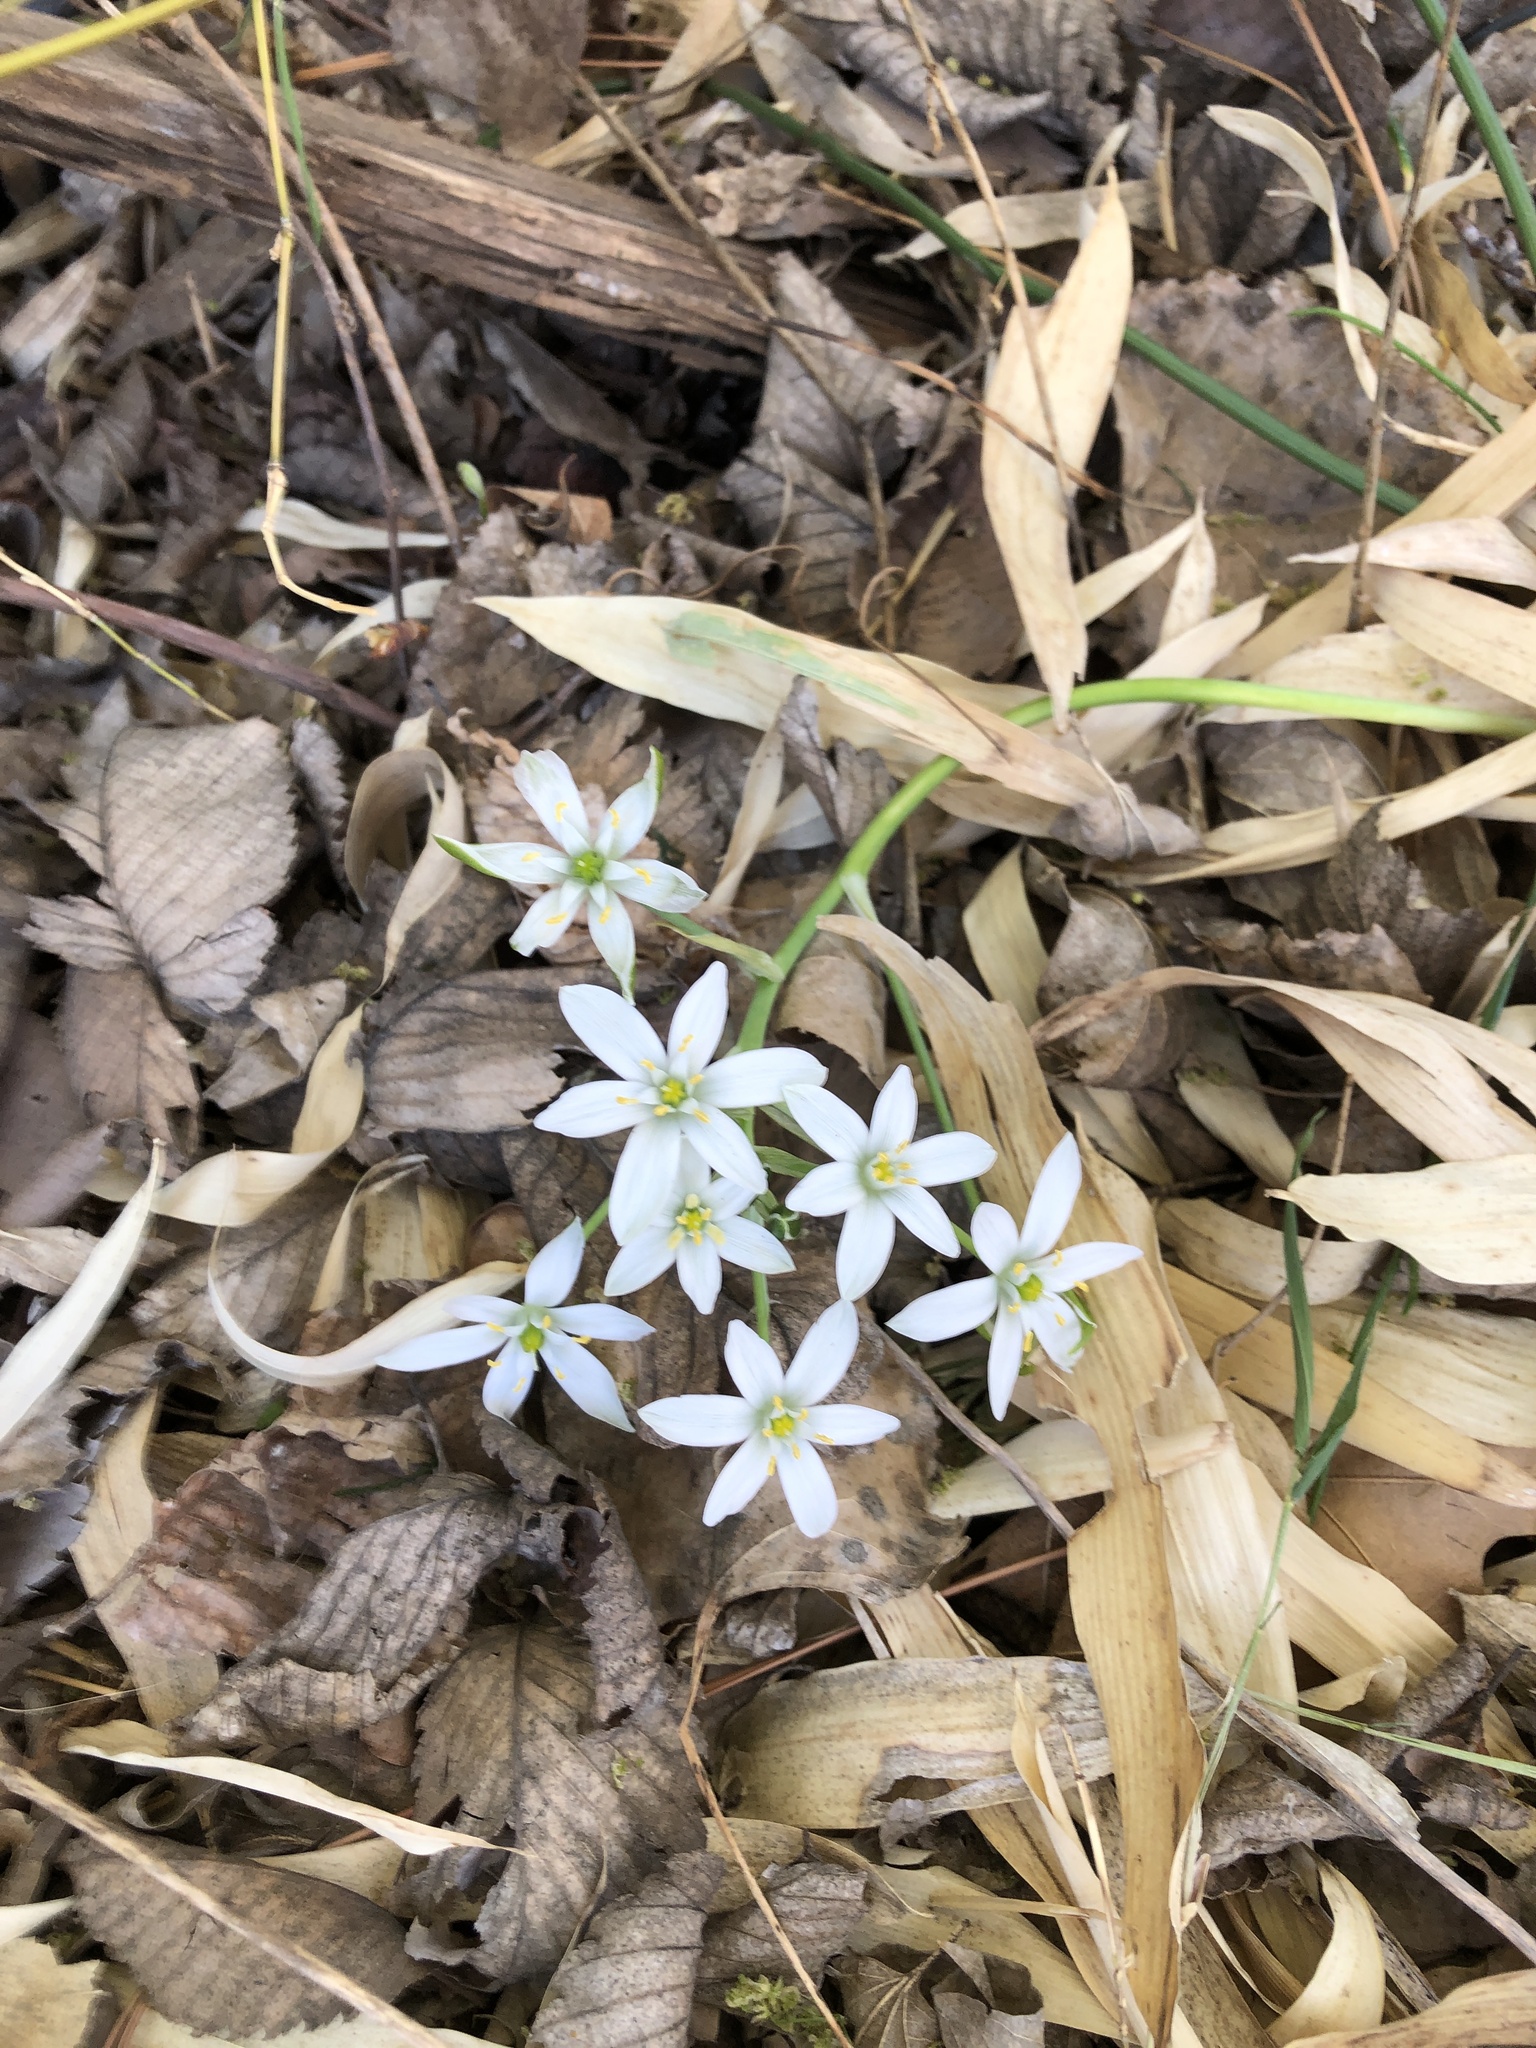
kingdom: Plantae
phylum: Tracheophyta
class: Liliopsida
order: Asparagales
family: Asparagaceae
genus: Ornithogalum
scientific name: Ornithogalum umbellatum
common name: Garden star-of-bethlehem
